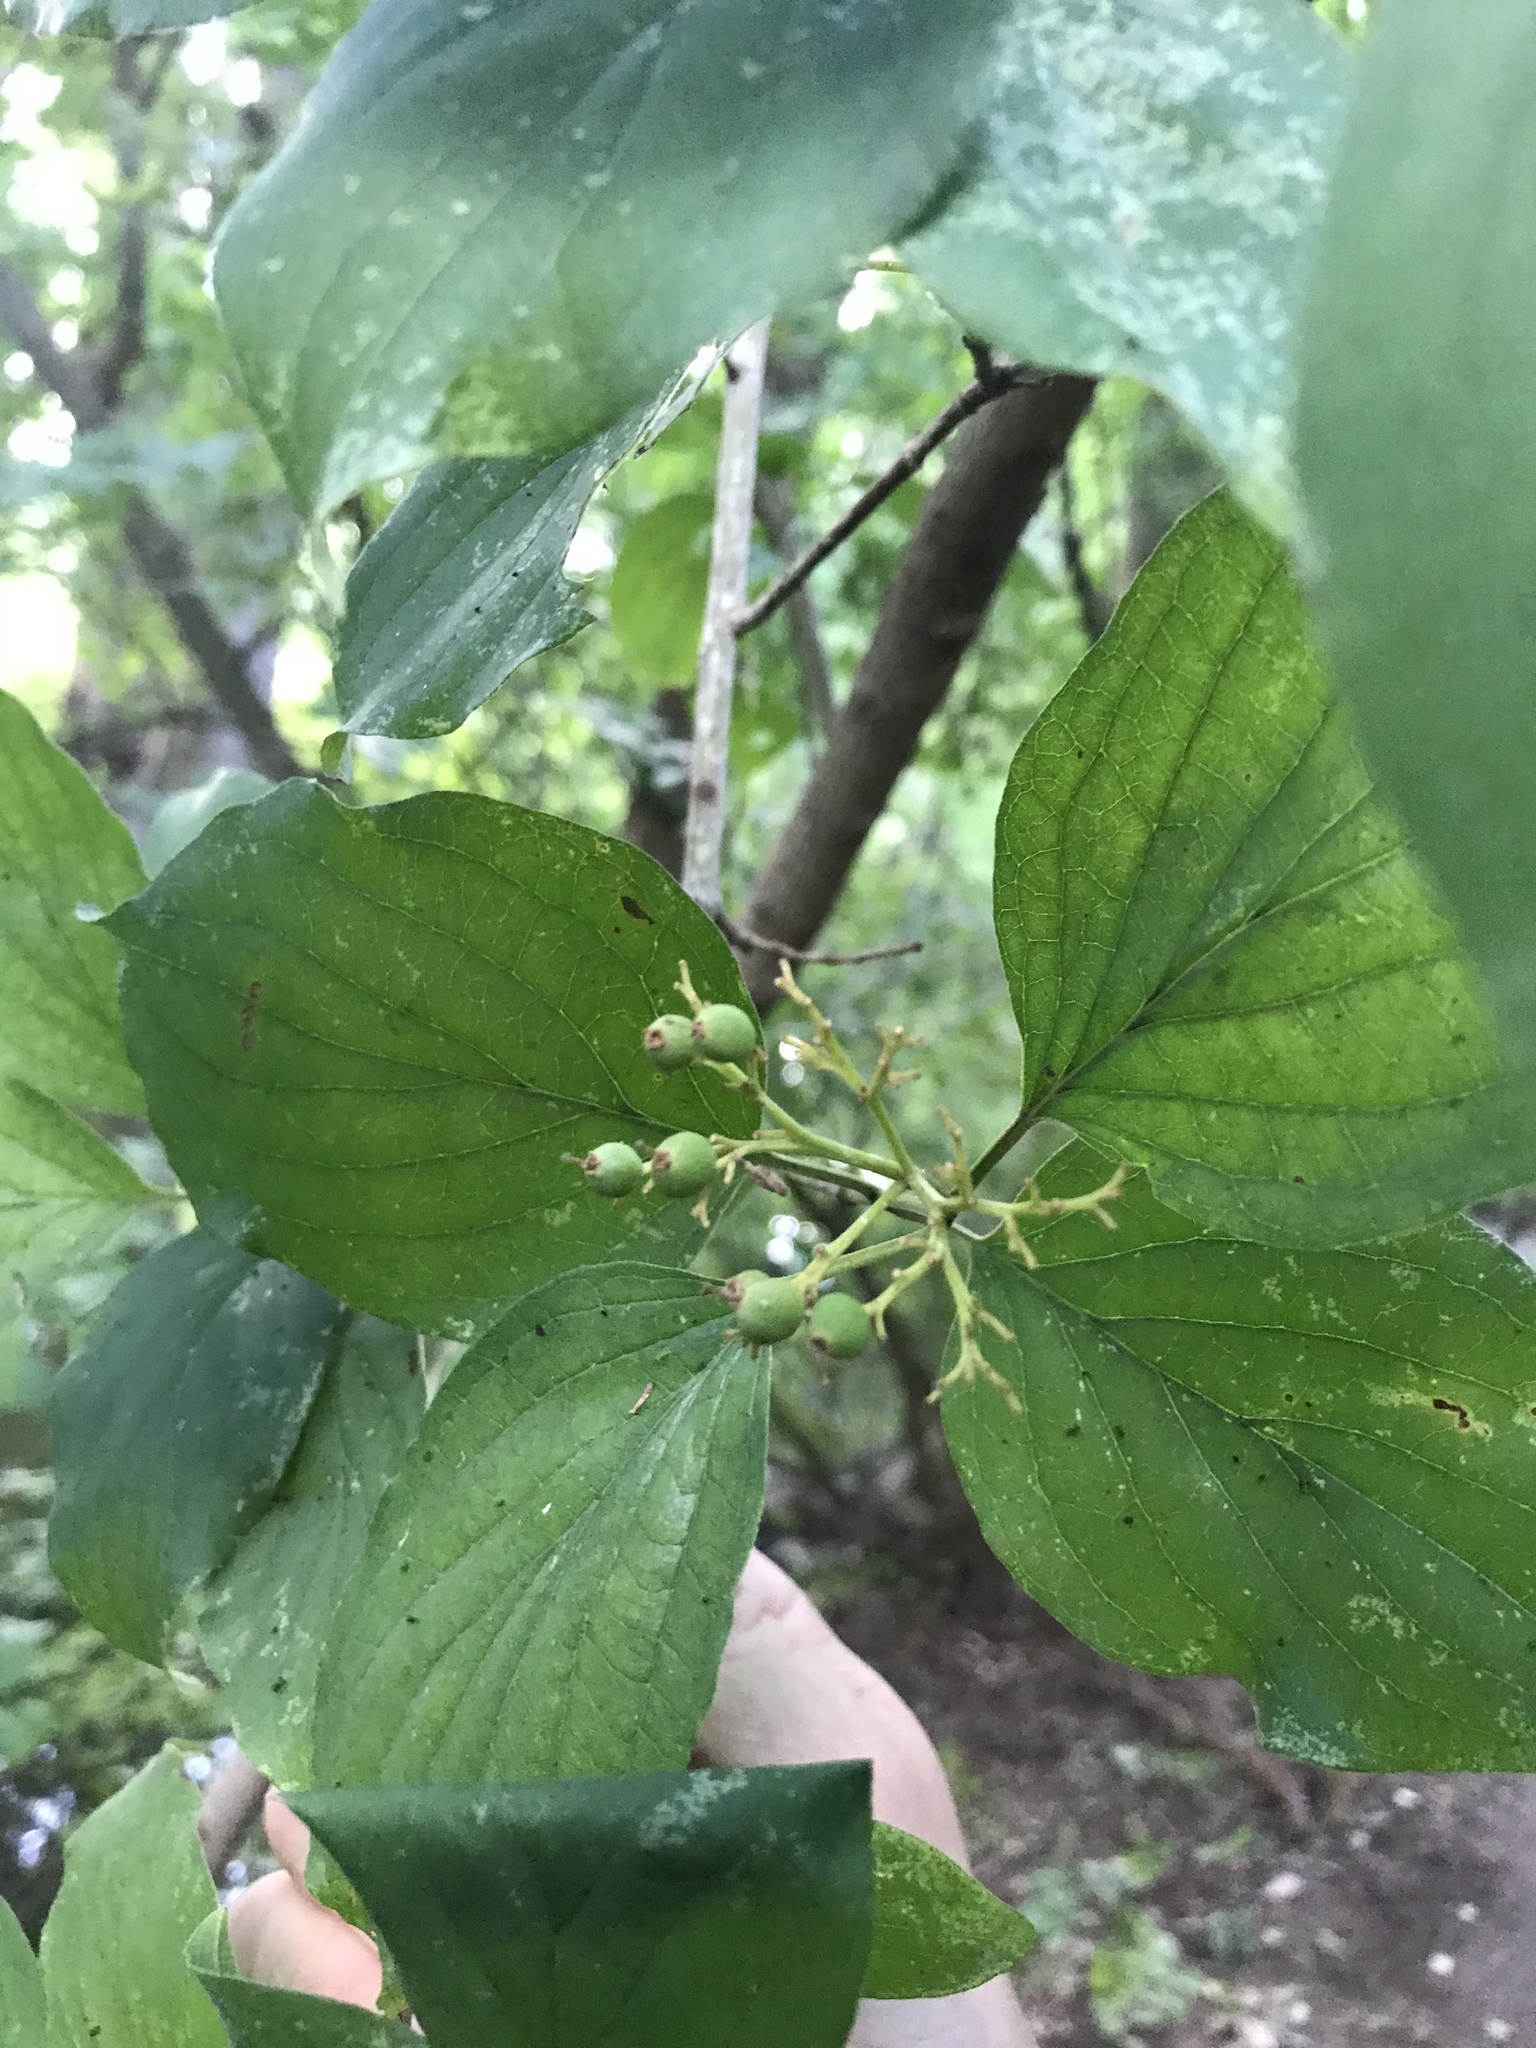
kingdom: Plantae
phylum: Tracheophyta
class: Magnoliopsida
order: Cornales
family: Cornaceae
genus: Cornus
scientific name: Cornus drummondii
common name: Rough-leaf dogwood
